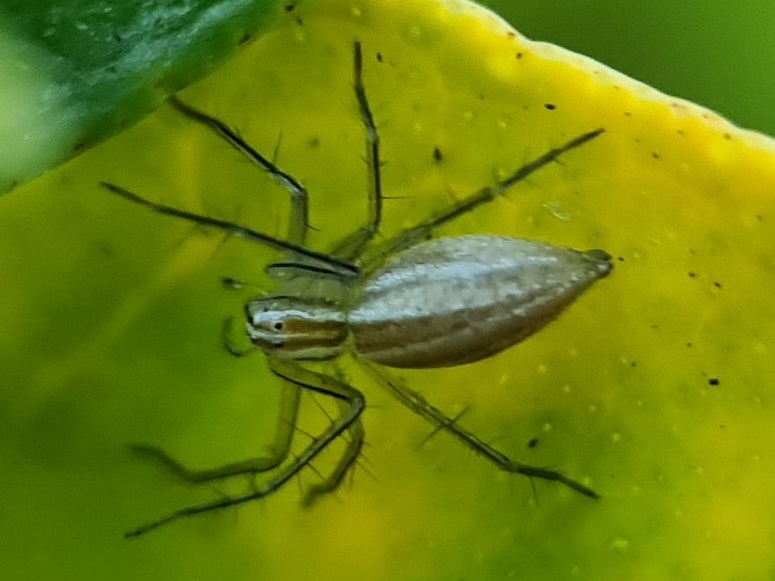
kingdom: Animalia
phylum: Arthropoda
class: Arachnida
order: Araneae
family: Oxyopidae
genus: Oxyopes
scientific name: Oxyopes macilentus
